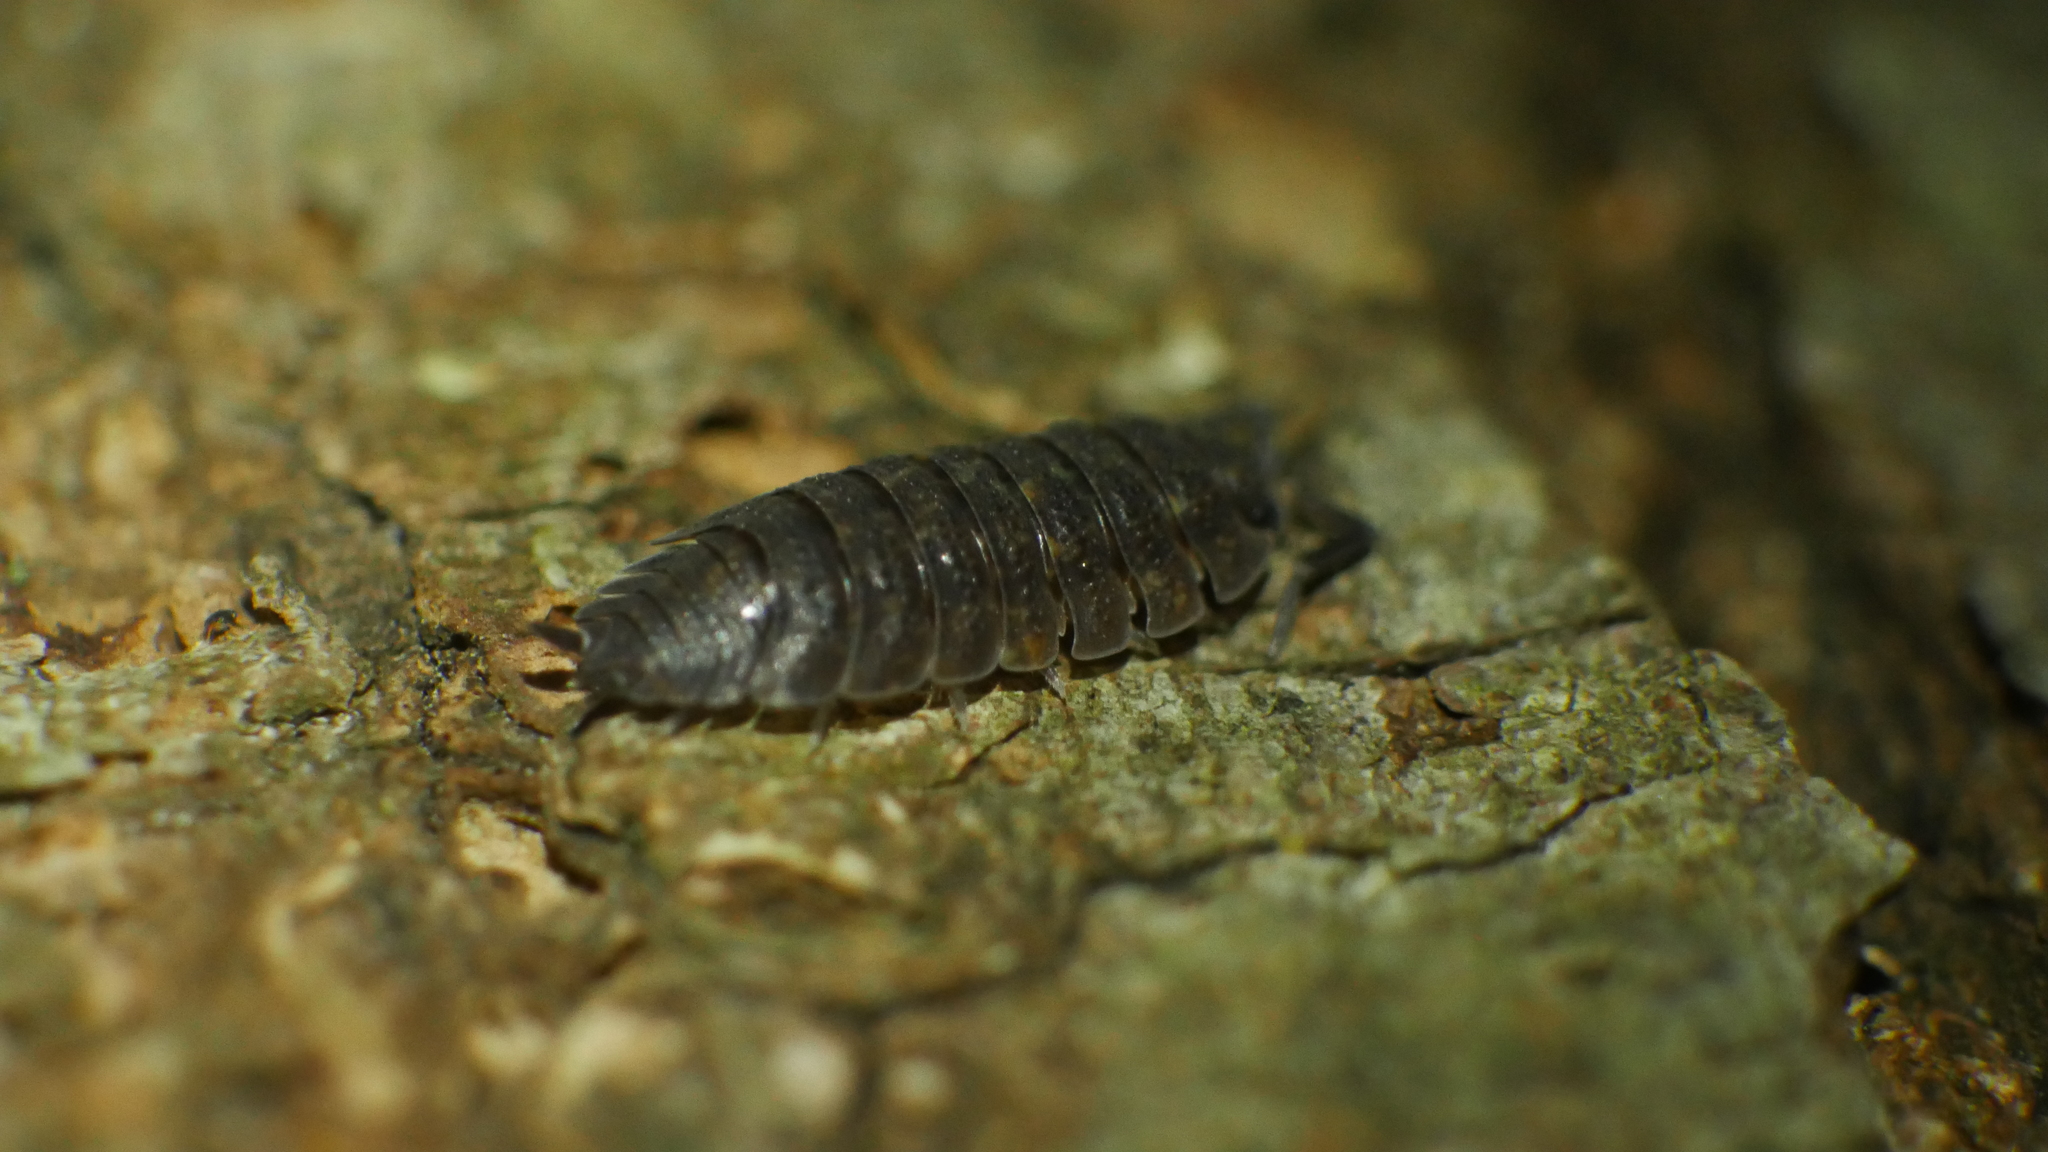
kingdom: Animalia
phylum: Arthropoda
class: Malacostraca
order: Isopoda
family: Porcellionidae
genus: Porcellio
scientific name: Porcellio scaber
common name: Common rough woodlouse
